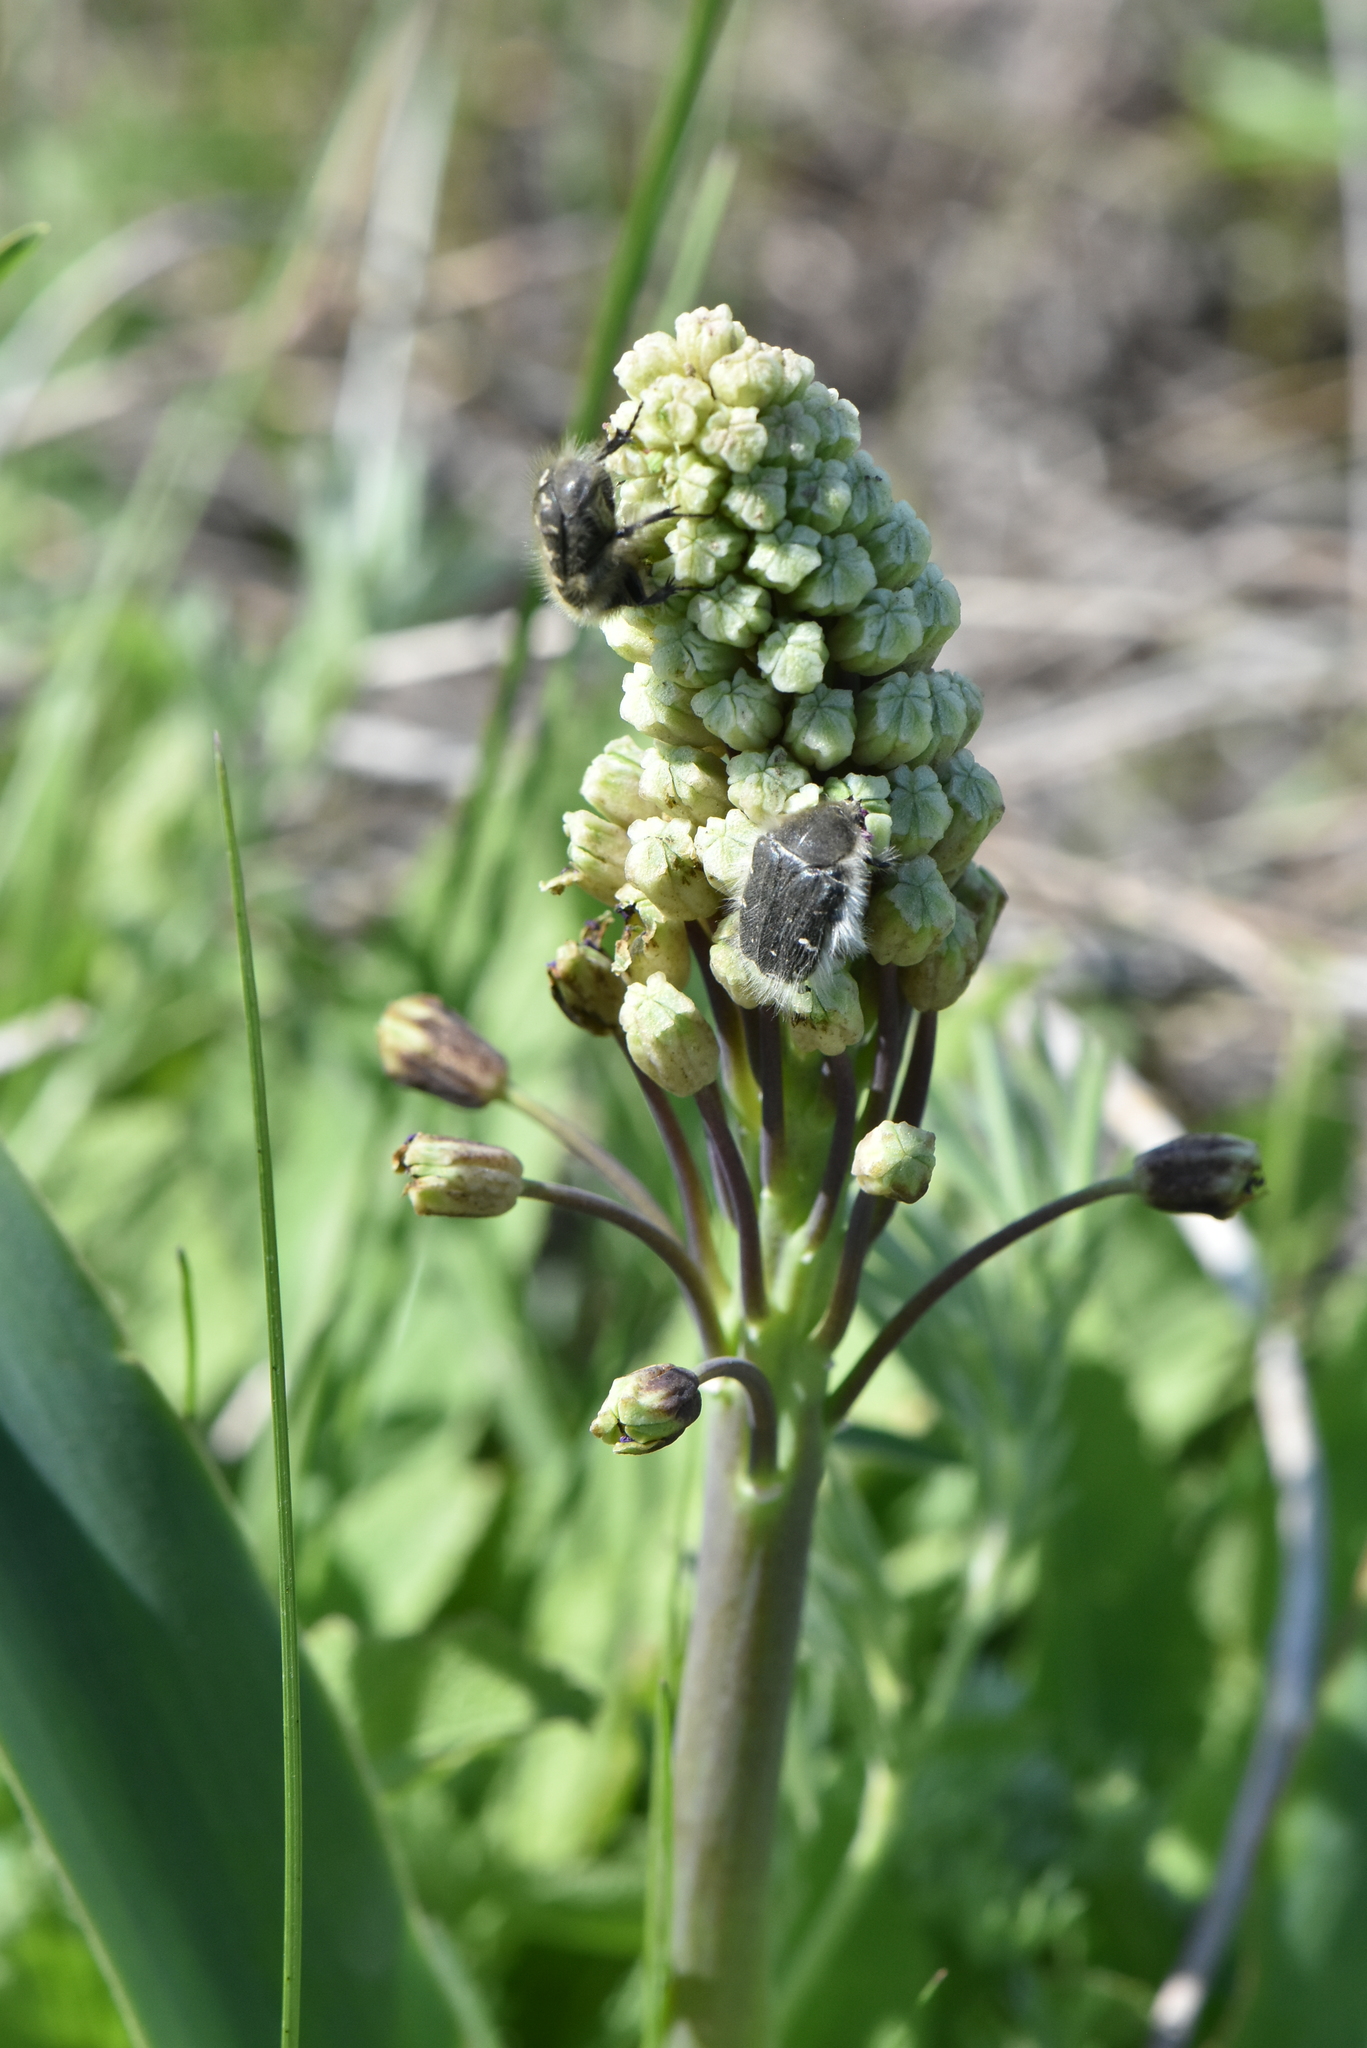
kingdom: Plantae
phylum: Tracheophyta
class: Liliopsida
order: Asparagales
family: Asparagaceae
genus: Bellevalia
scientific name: Bellevalia speciosa
